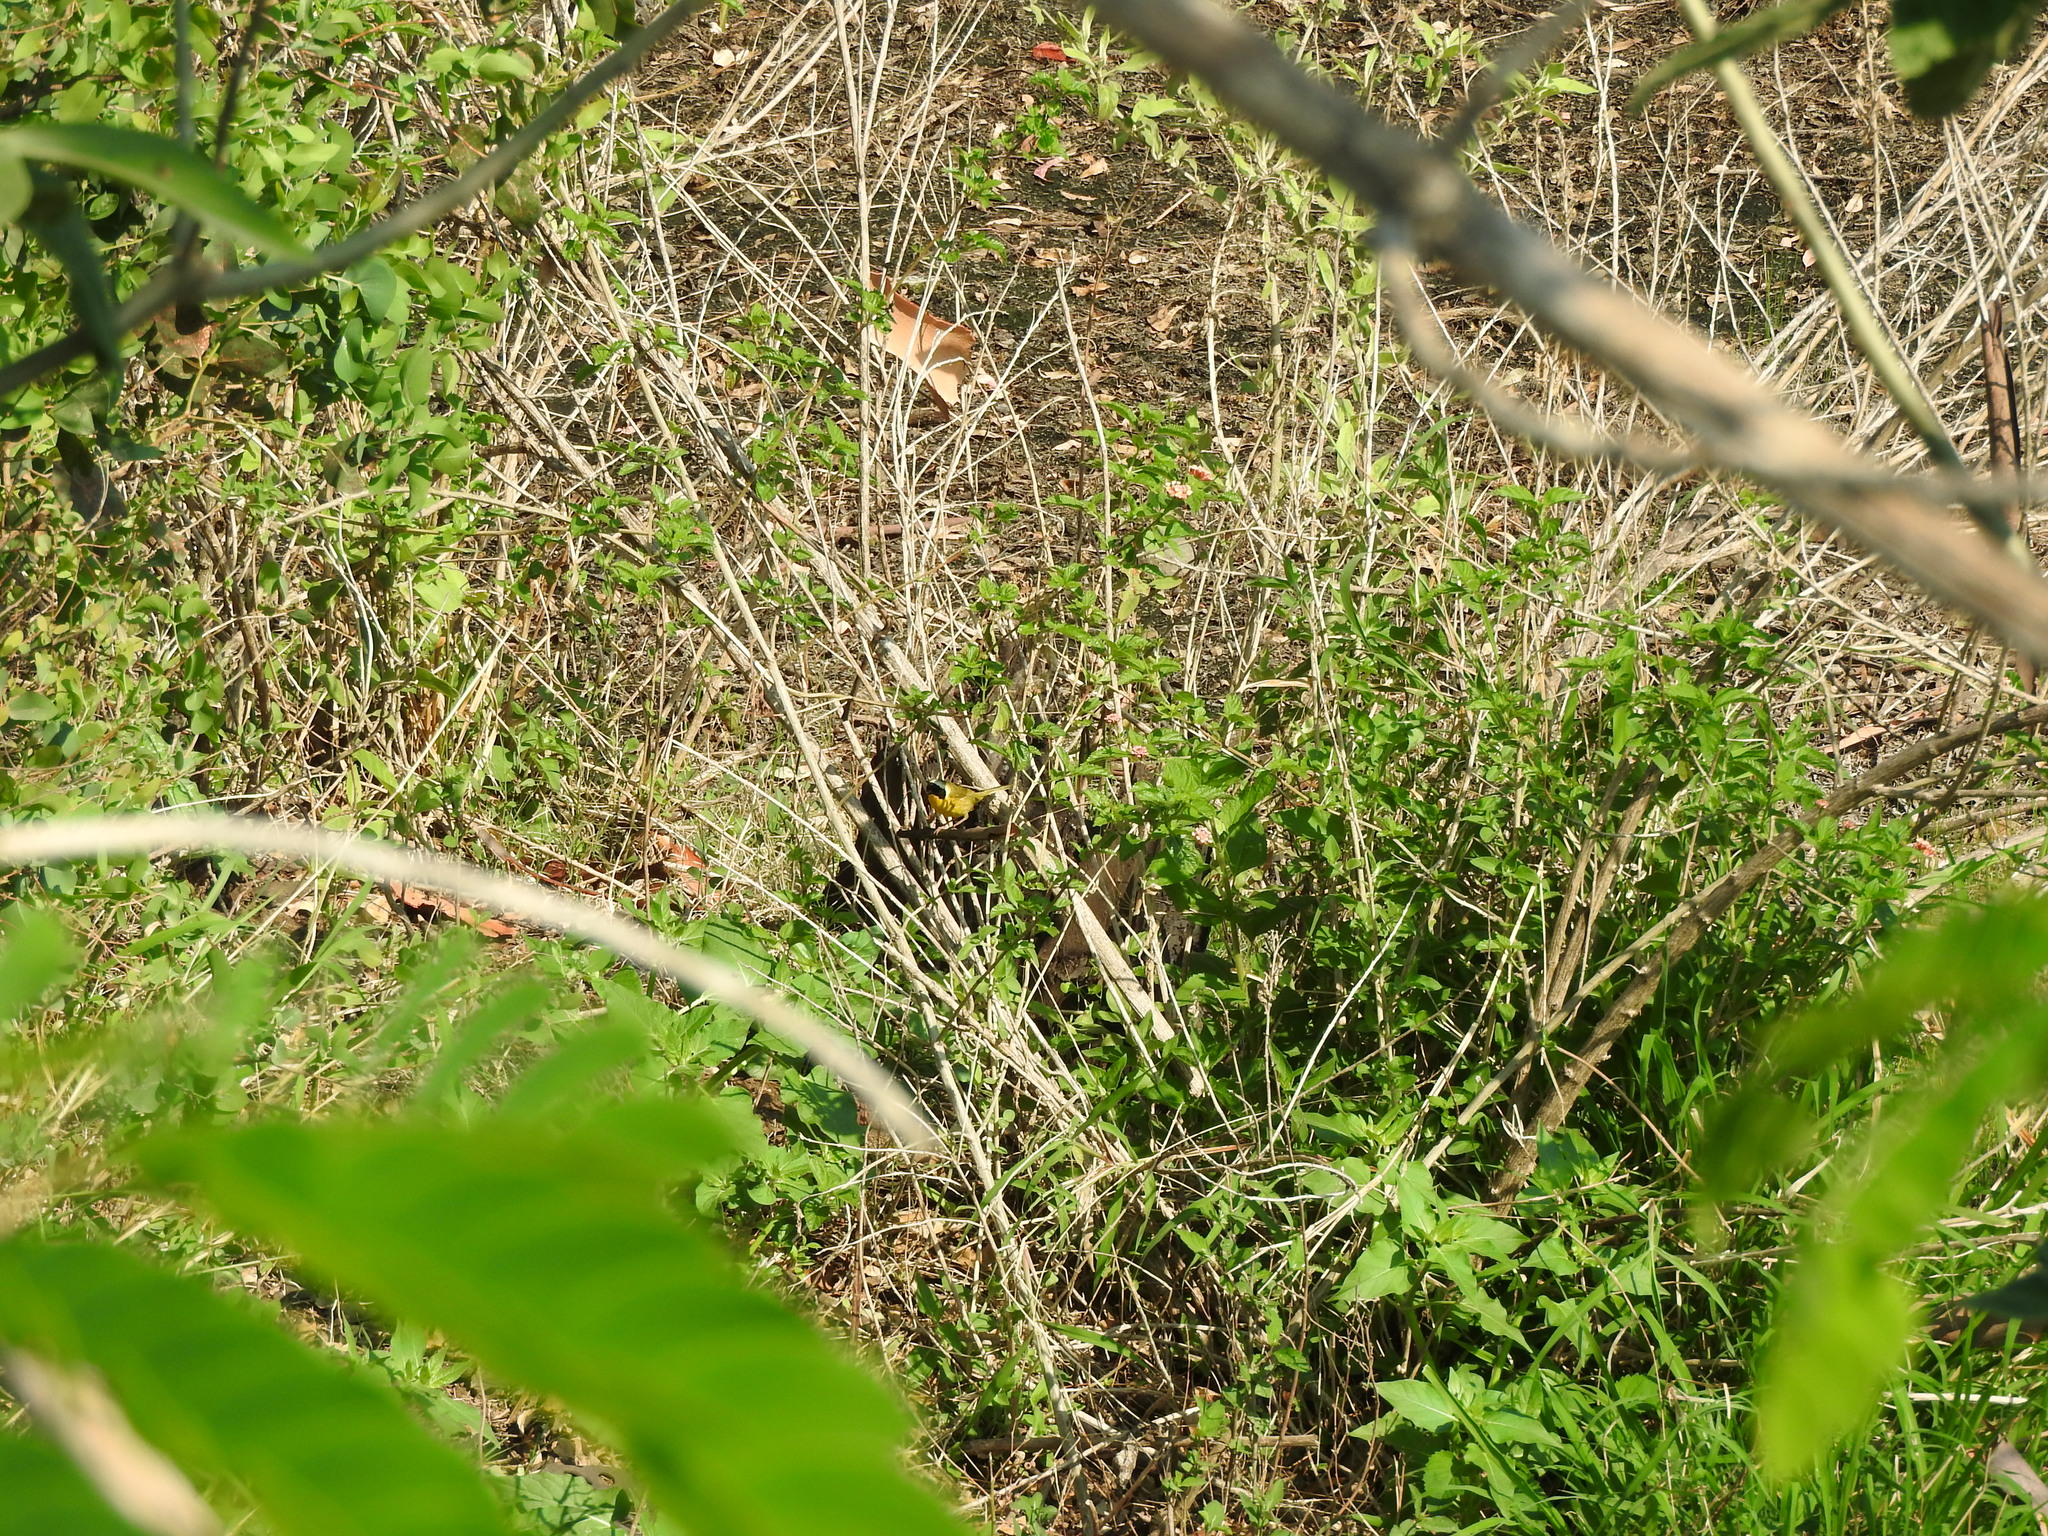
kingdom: Animalia
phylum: Chordata
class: Aves
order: Passeriformes
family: Parulidae
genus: Geothlypis
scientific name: Geothlypis trichas
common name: Common yellowthroat
